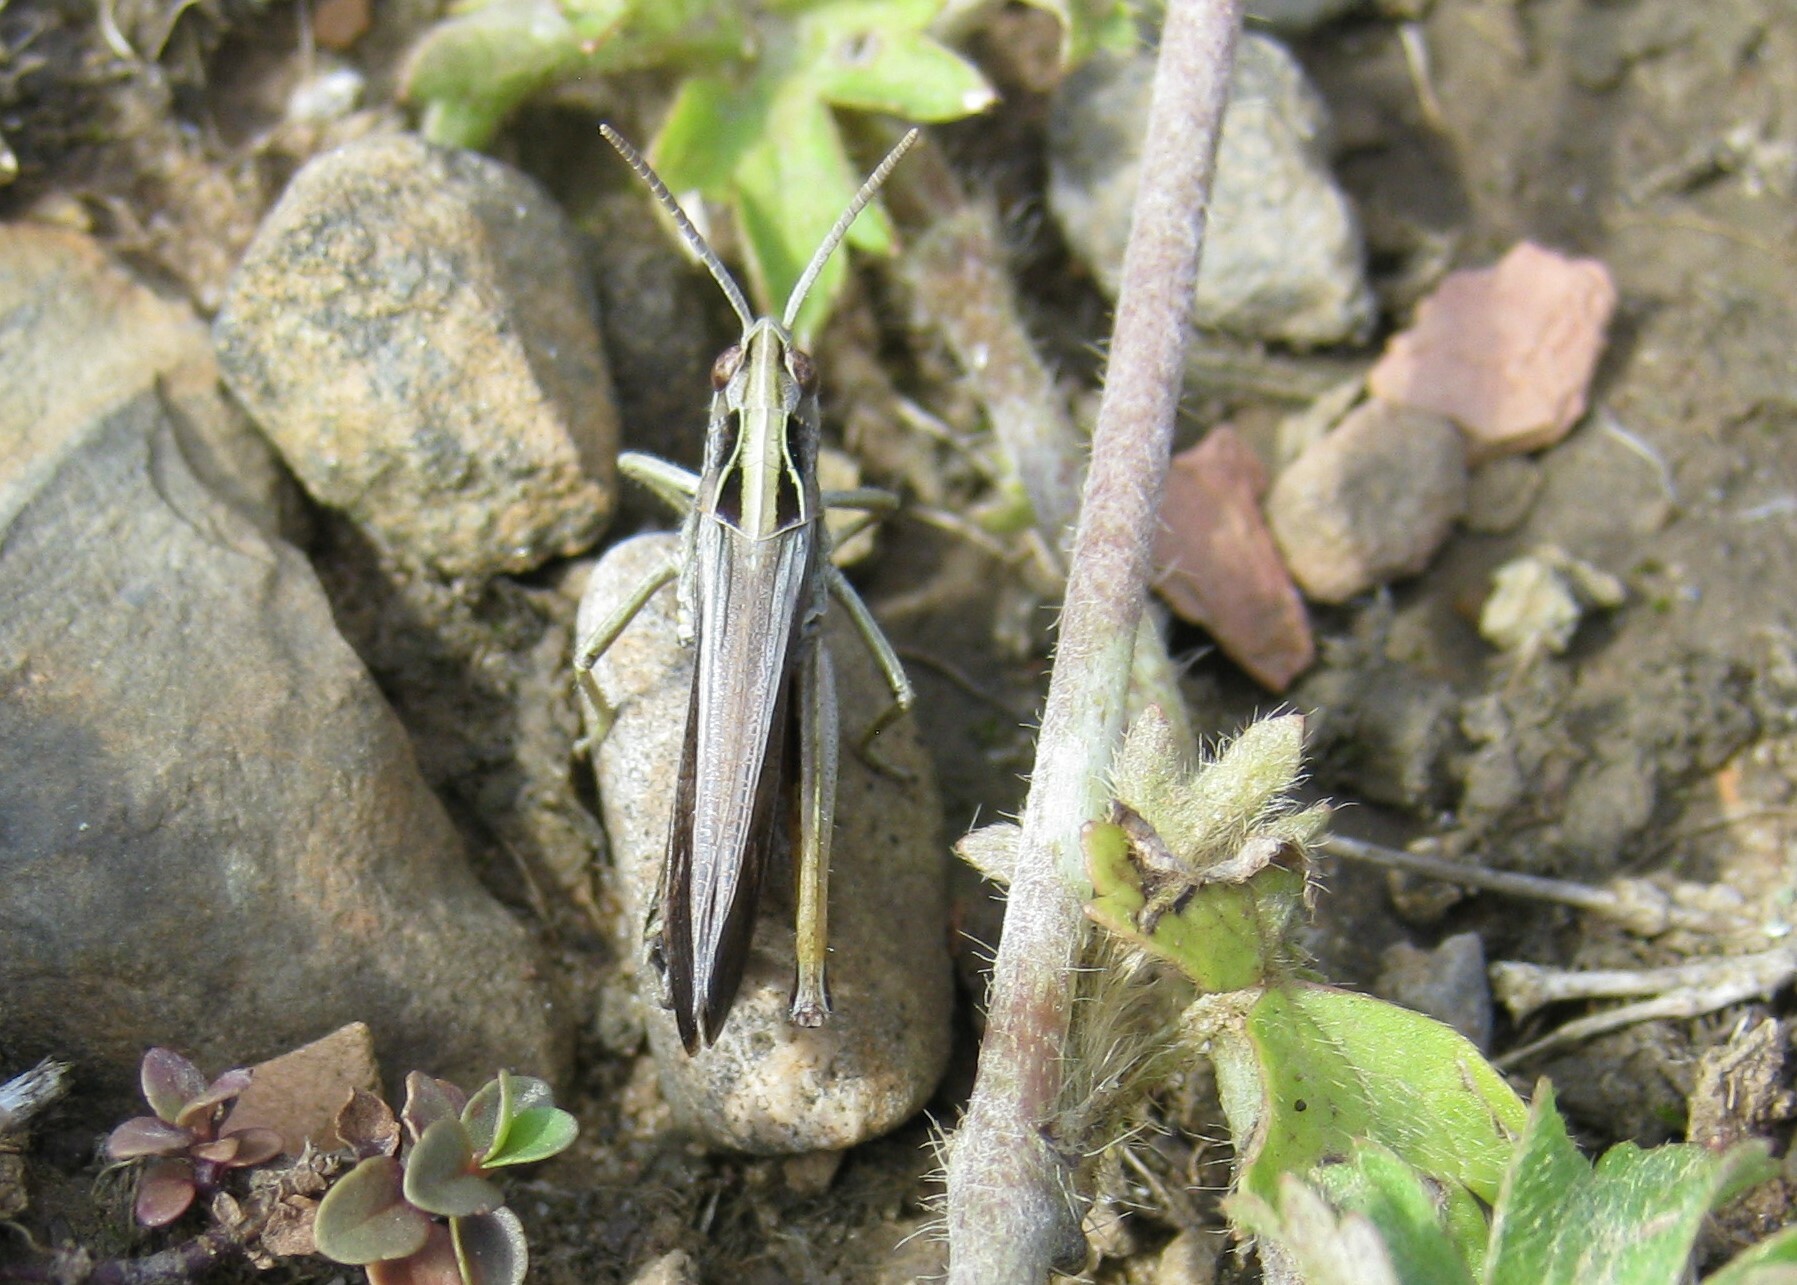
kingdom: Animalia
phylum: Arthropoda
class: Insecta
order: Orthoptera
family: Acrididae
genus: Omocestus
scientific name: Omocestus viridulus
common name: Common green grasshopper
